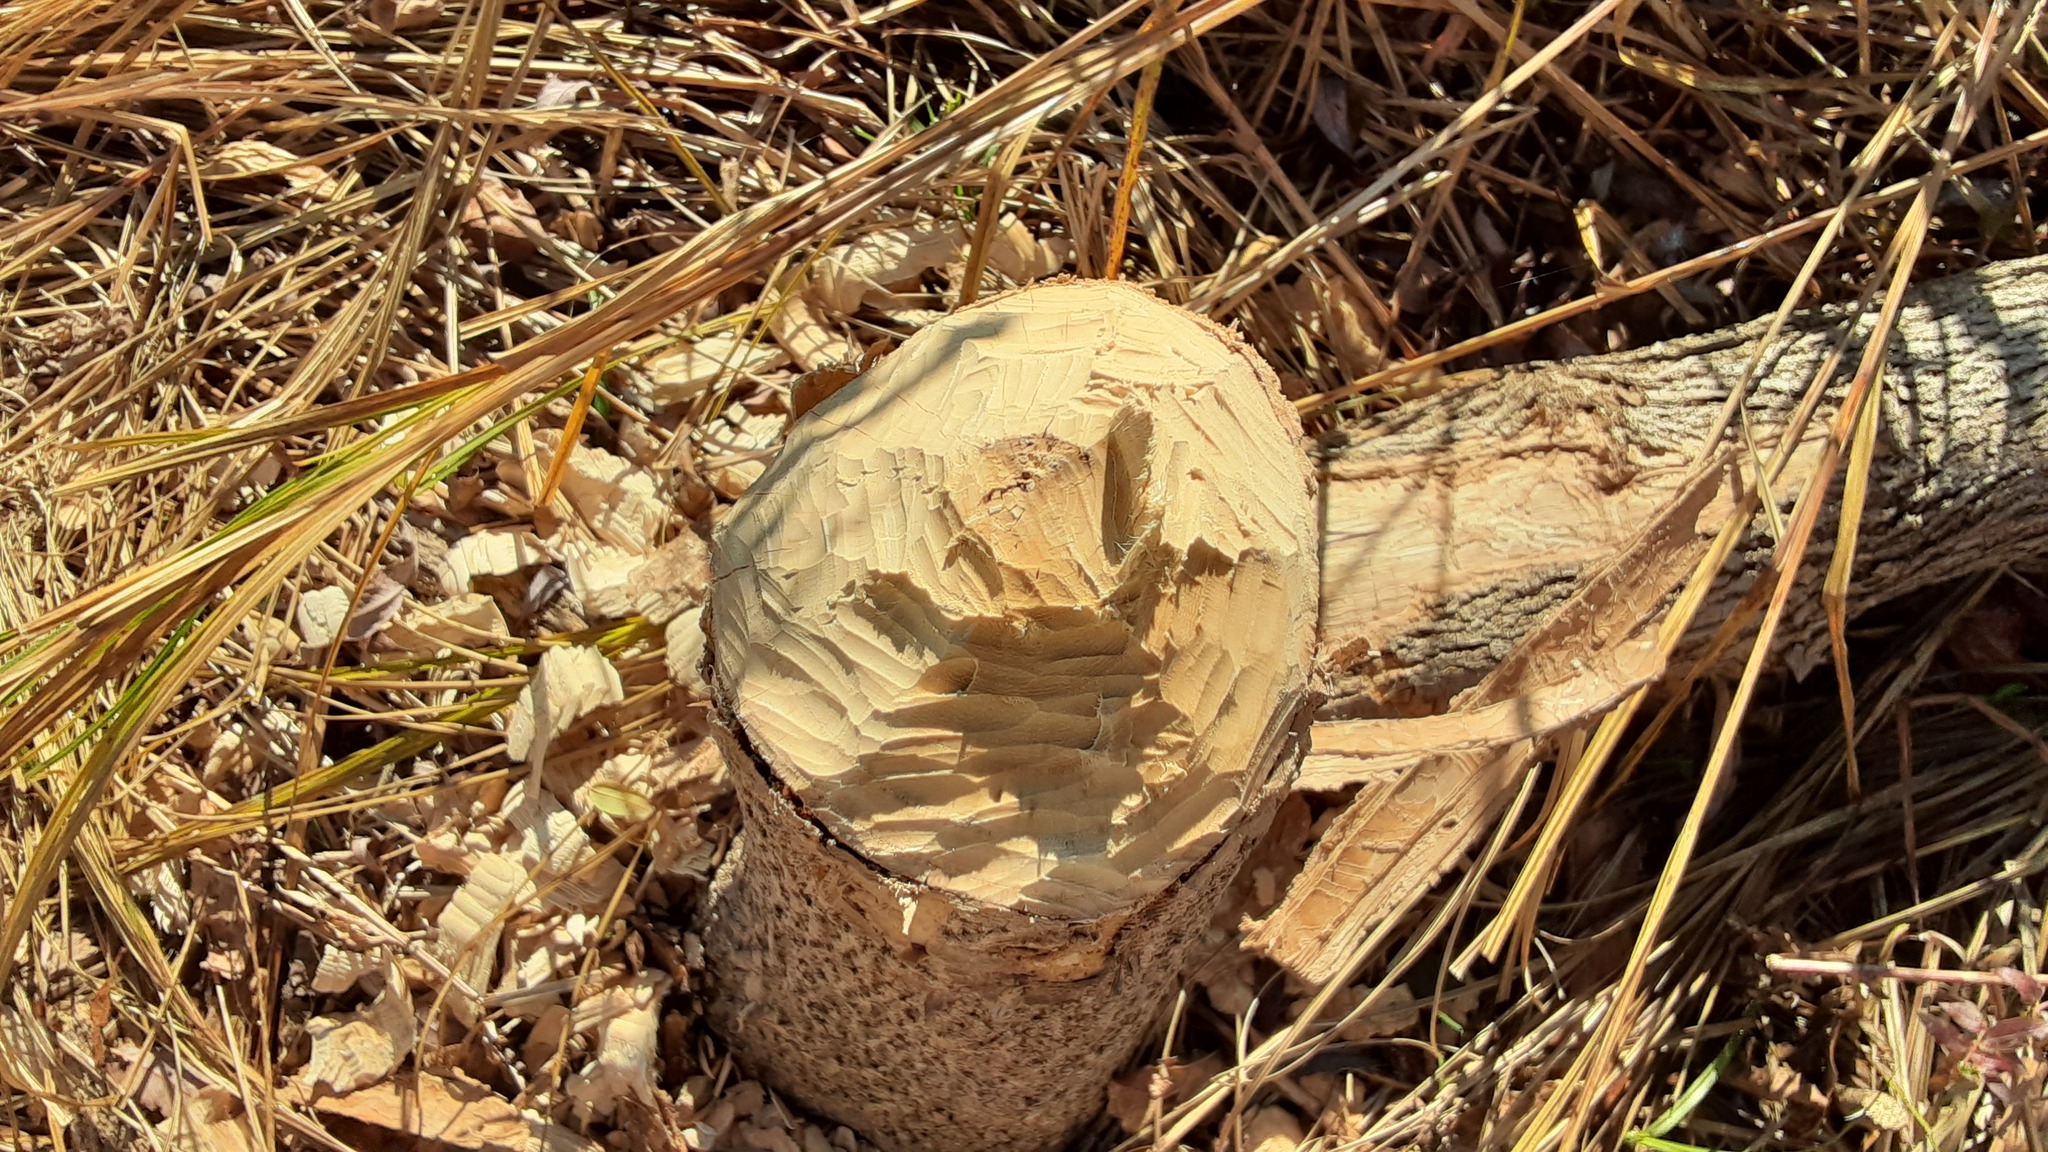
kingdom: Animalia
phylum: Chordata
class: Mammalia
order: Rodentia
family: Castoridae
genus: Castor
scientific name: Castor canadensis
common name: American beaver
